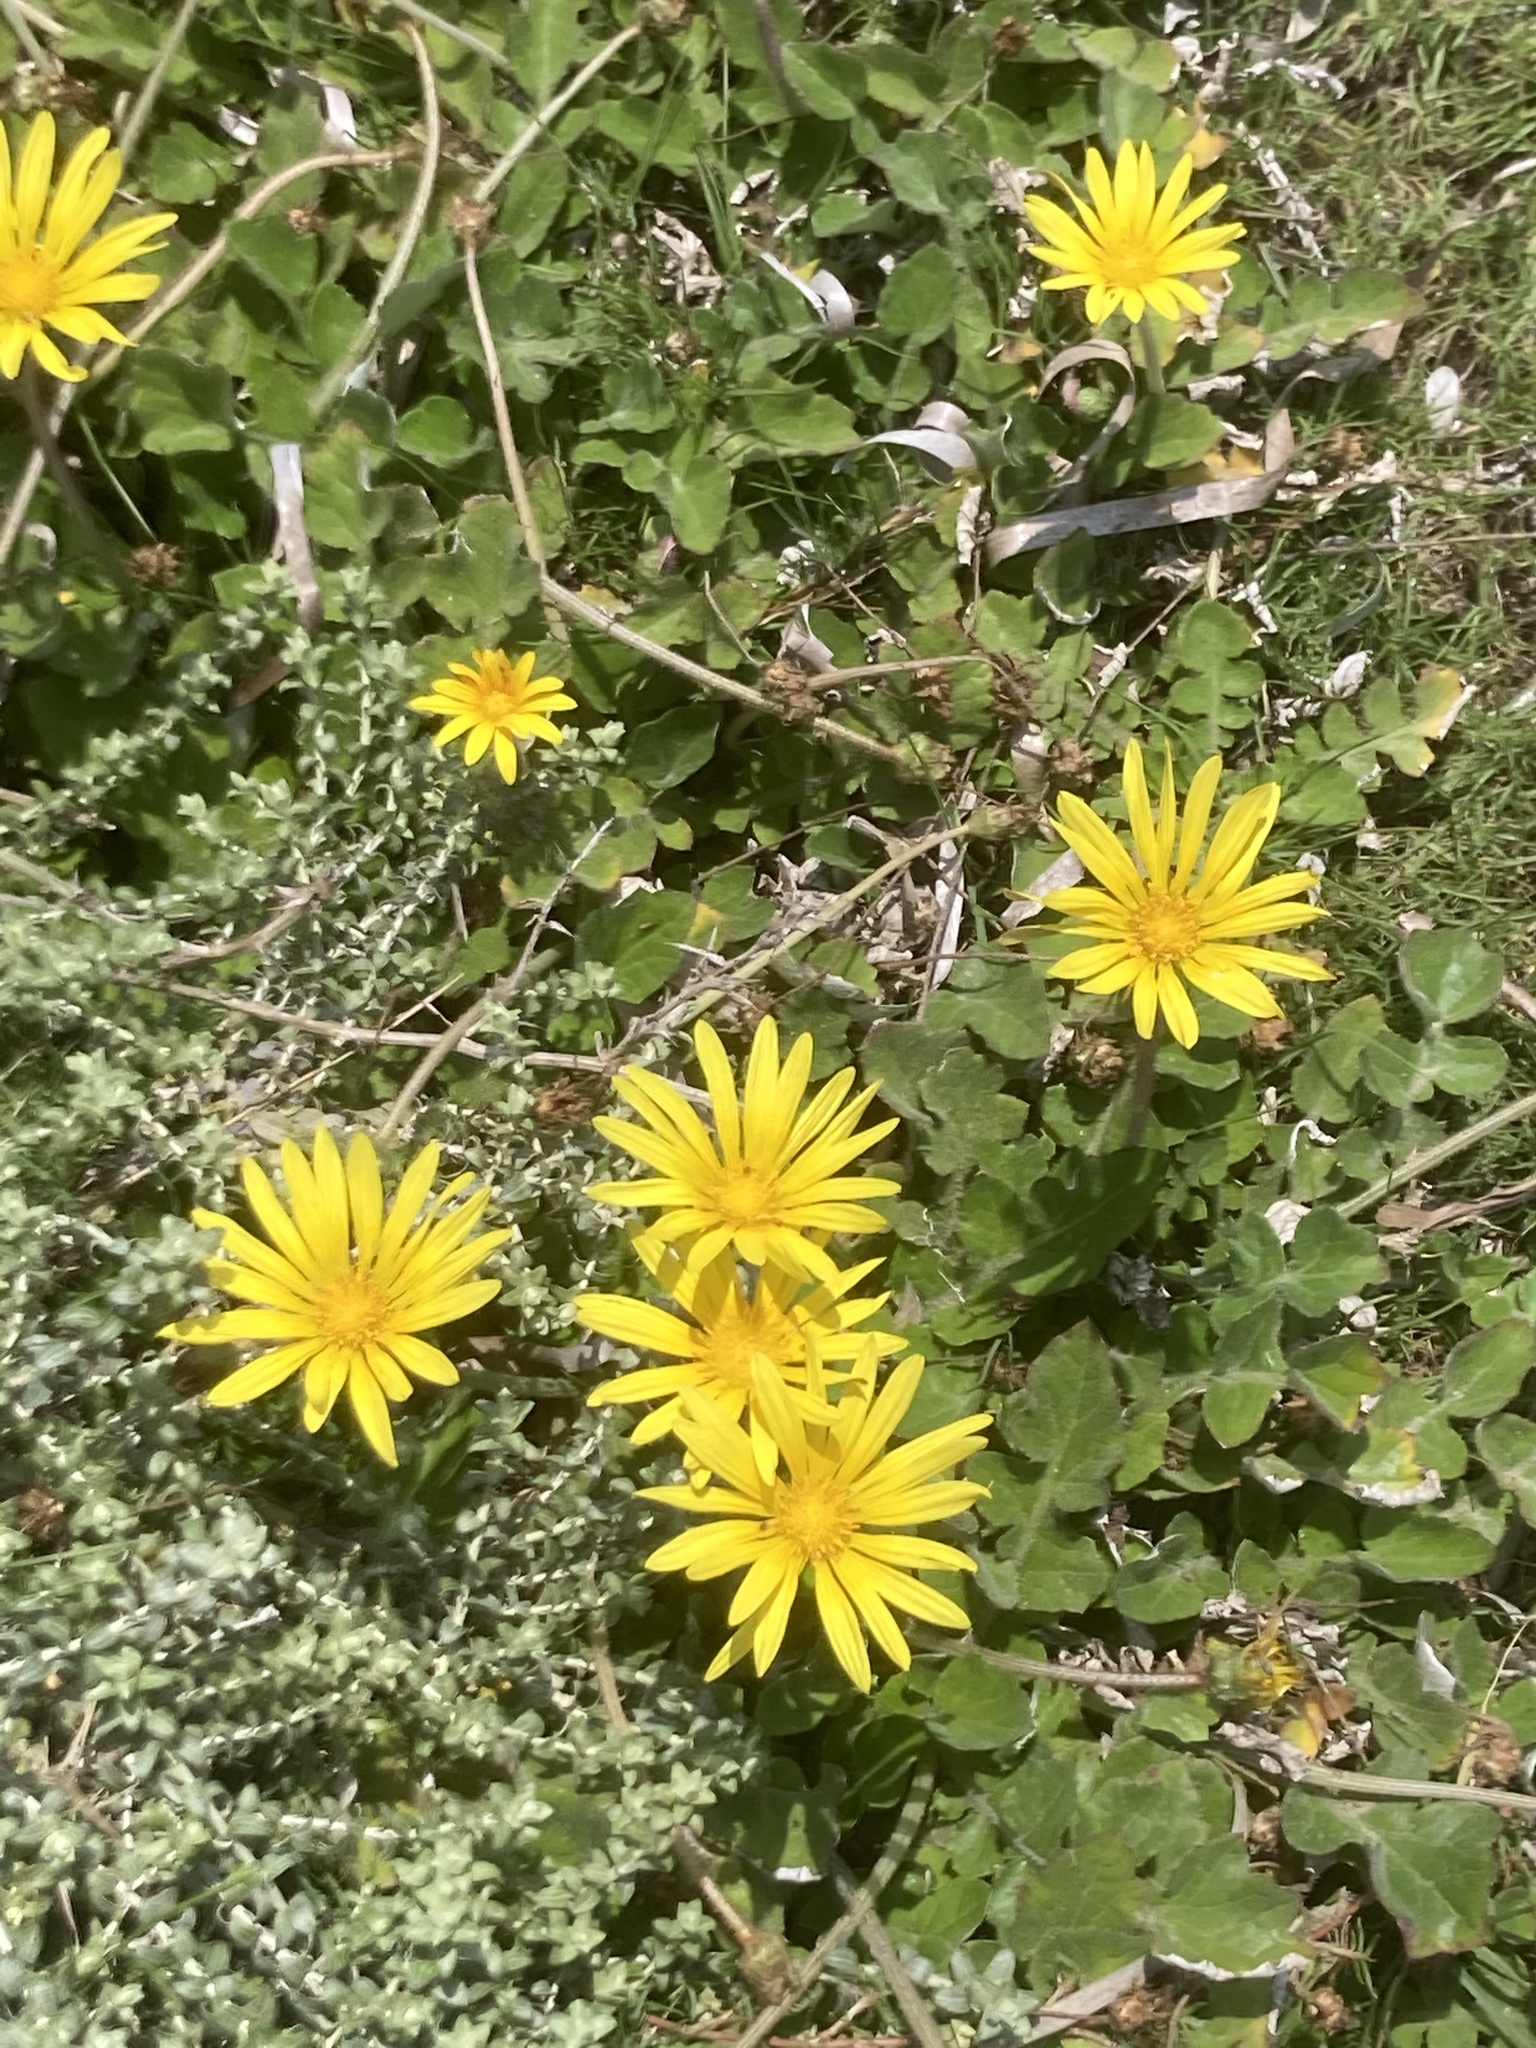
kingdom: Plantae
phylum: Tracheophyta
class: Magnoliopsida
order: Asterales
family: Asteraceae
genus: Hyoseris
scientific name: Hyoseris radiata
